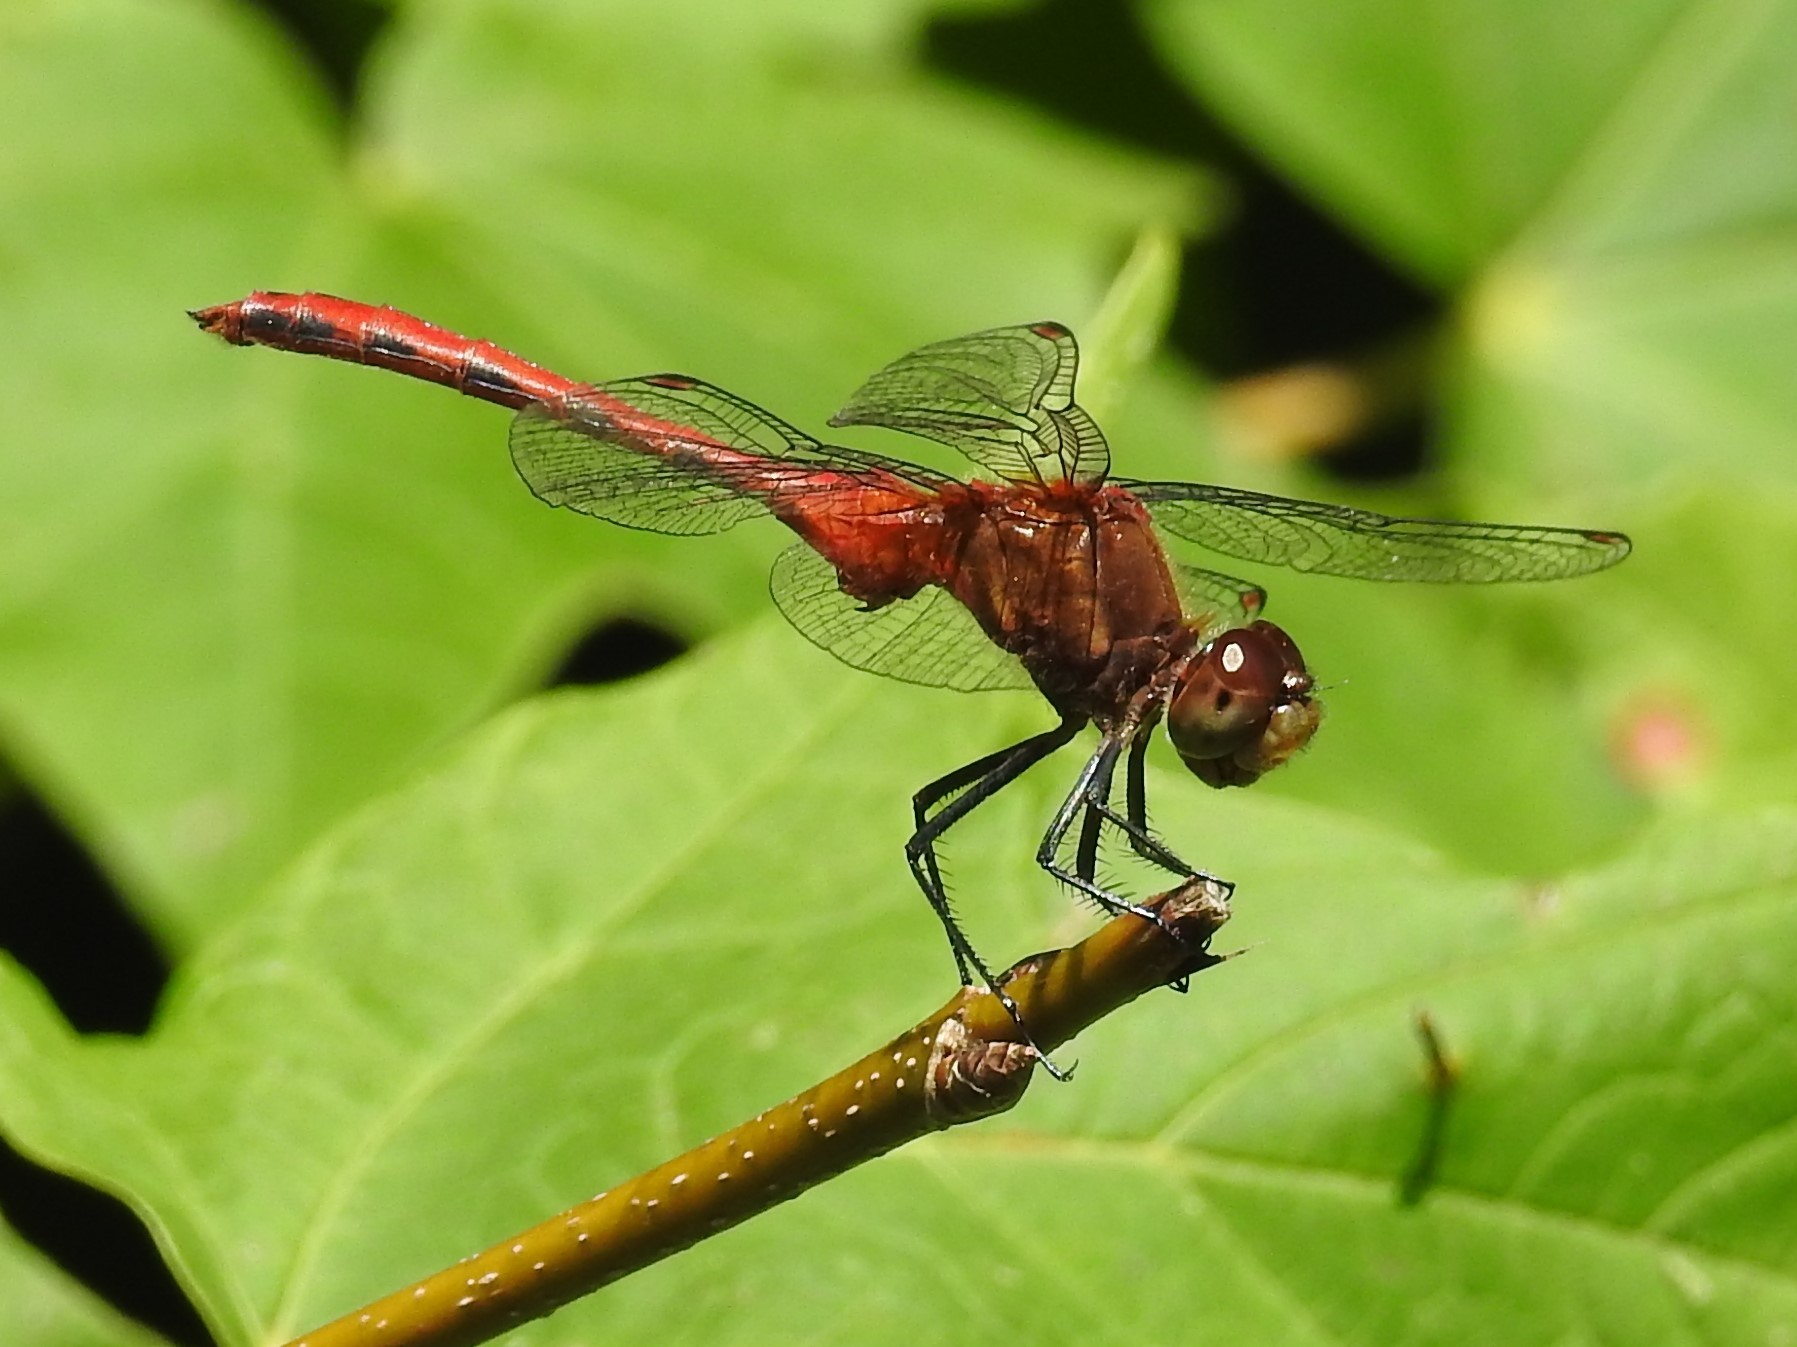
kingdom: Animalia
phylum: Arthropoda
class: Insecta
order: Odonata
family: Libellulidae
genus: Sympetrum
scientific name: Sympetrum
